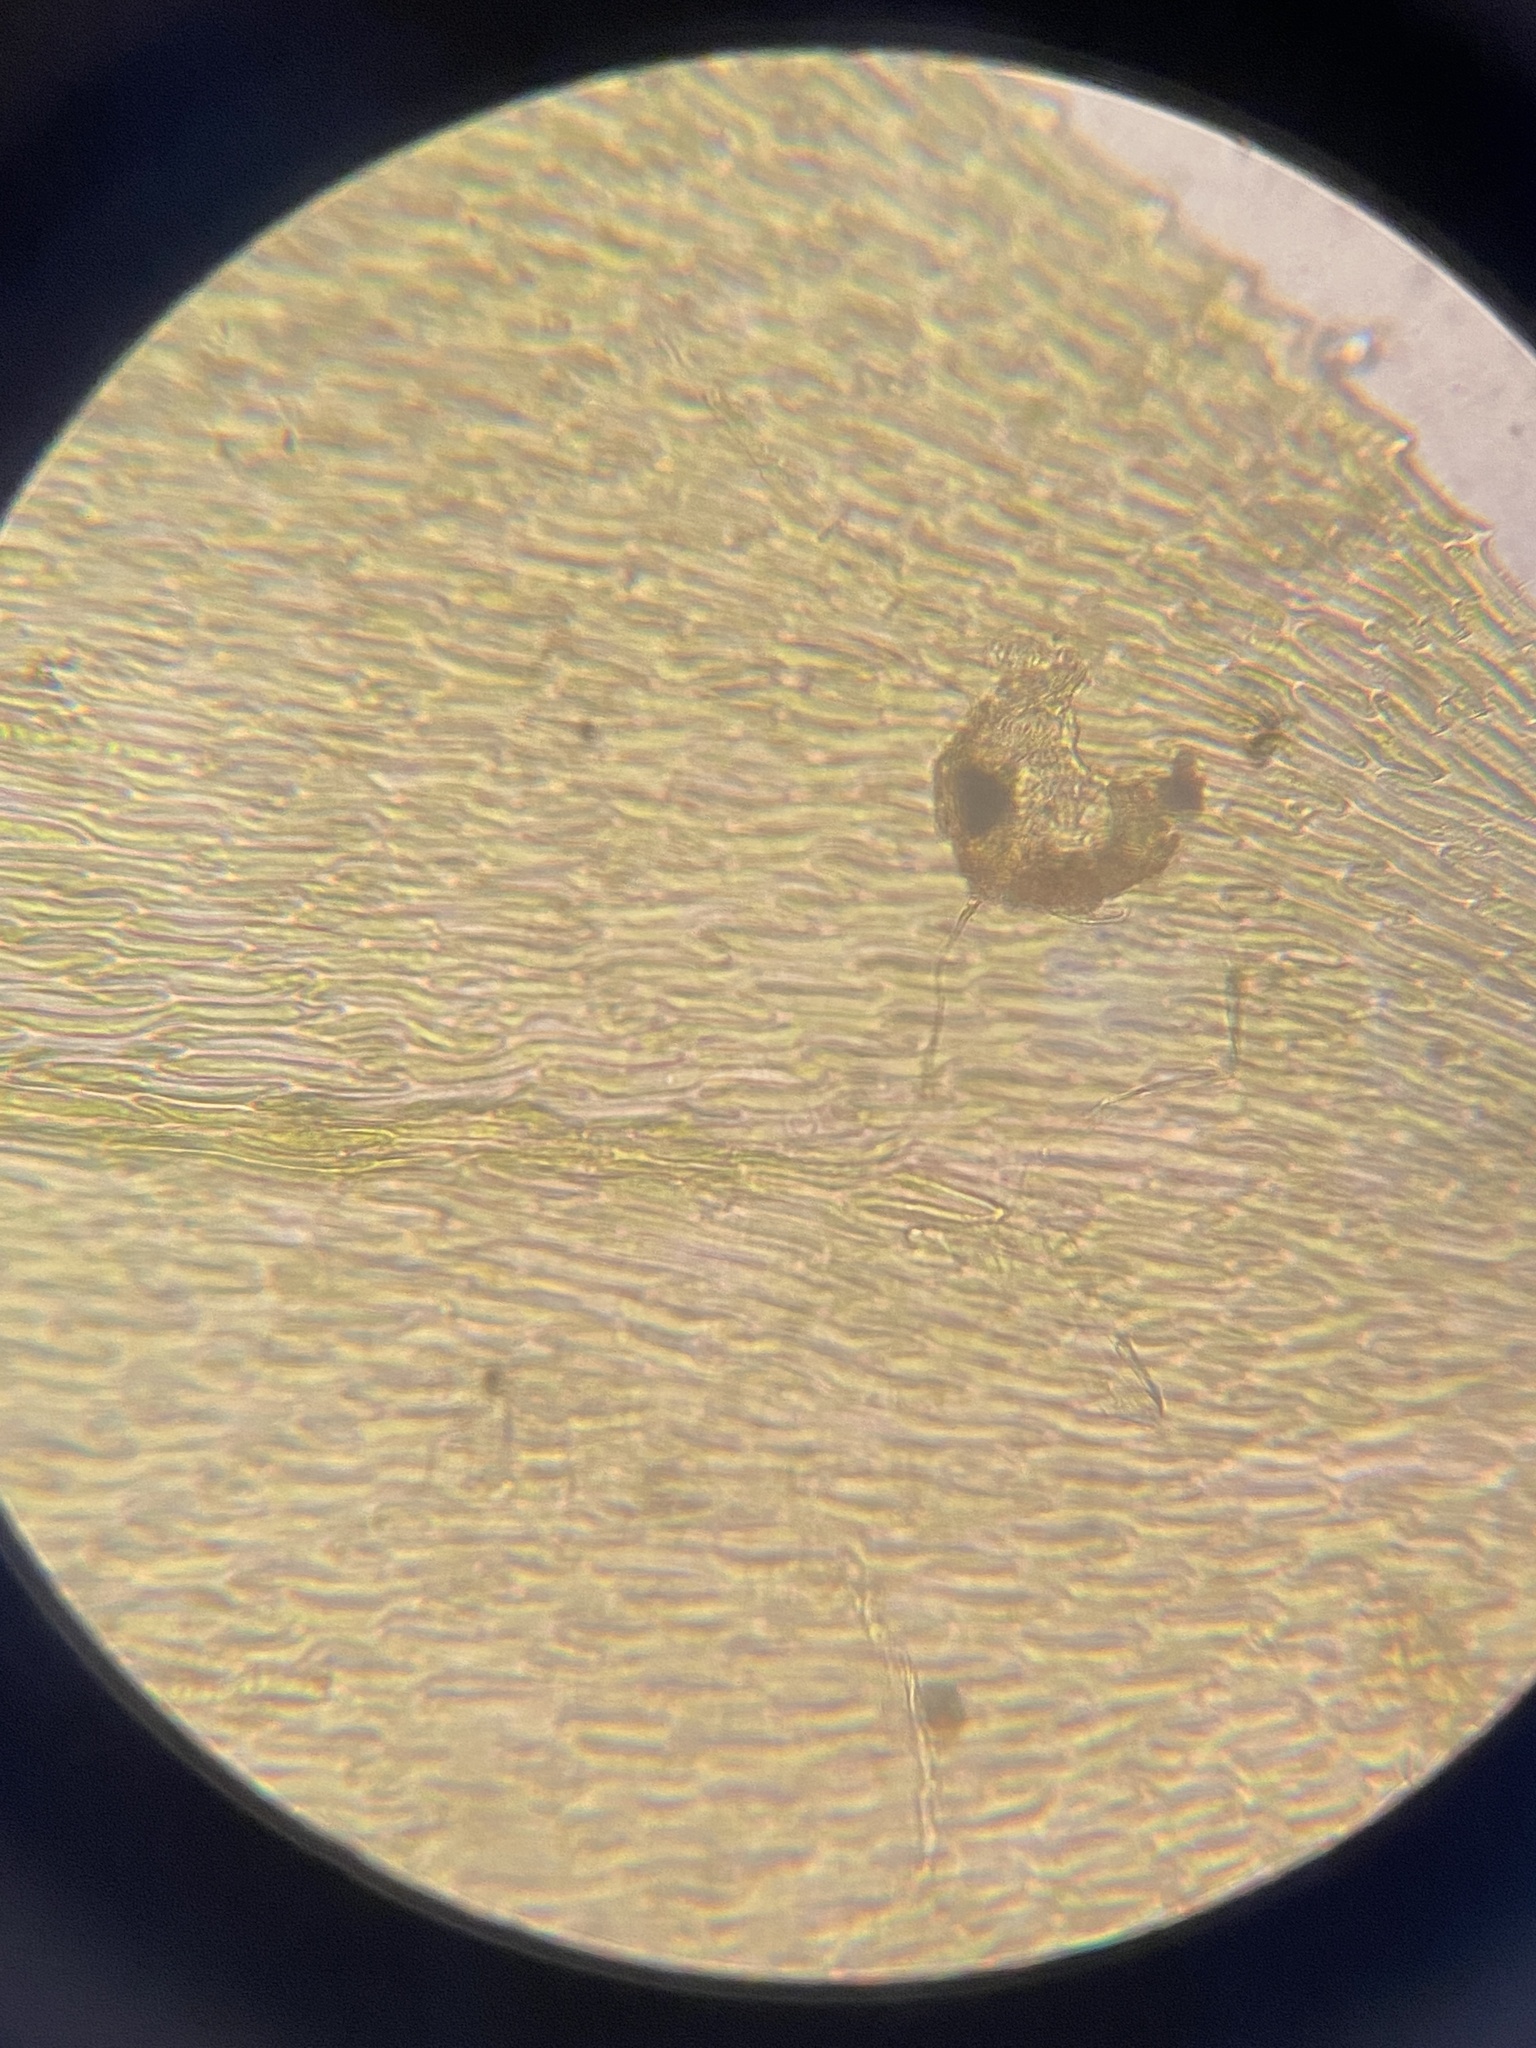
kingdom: Plantae
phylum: Bryophyta
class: Bryopsida
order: Hypnales
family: Brachytheciaceae
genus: Rhynchostegium
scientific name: Rhynchostegium aquaticum
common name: Aquatic long-beaked moss
